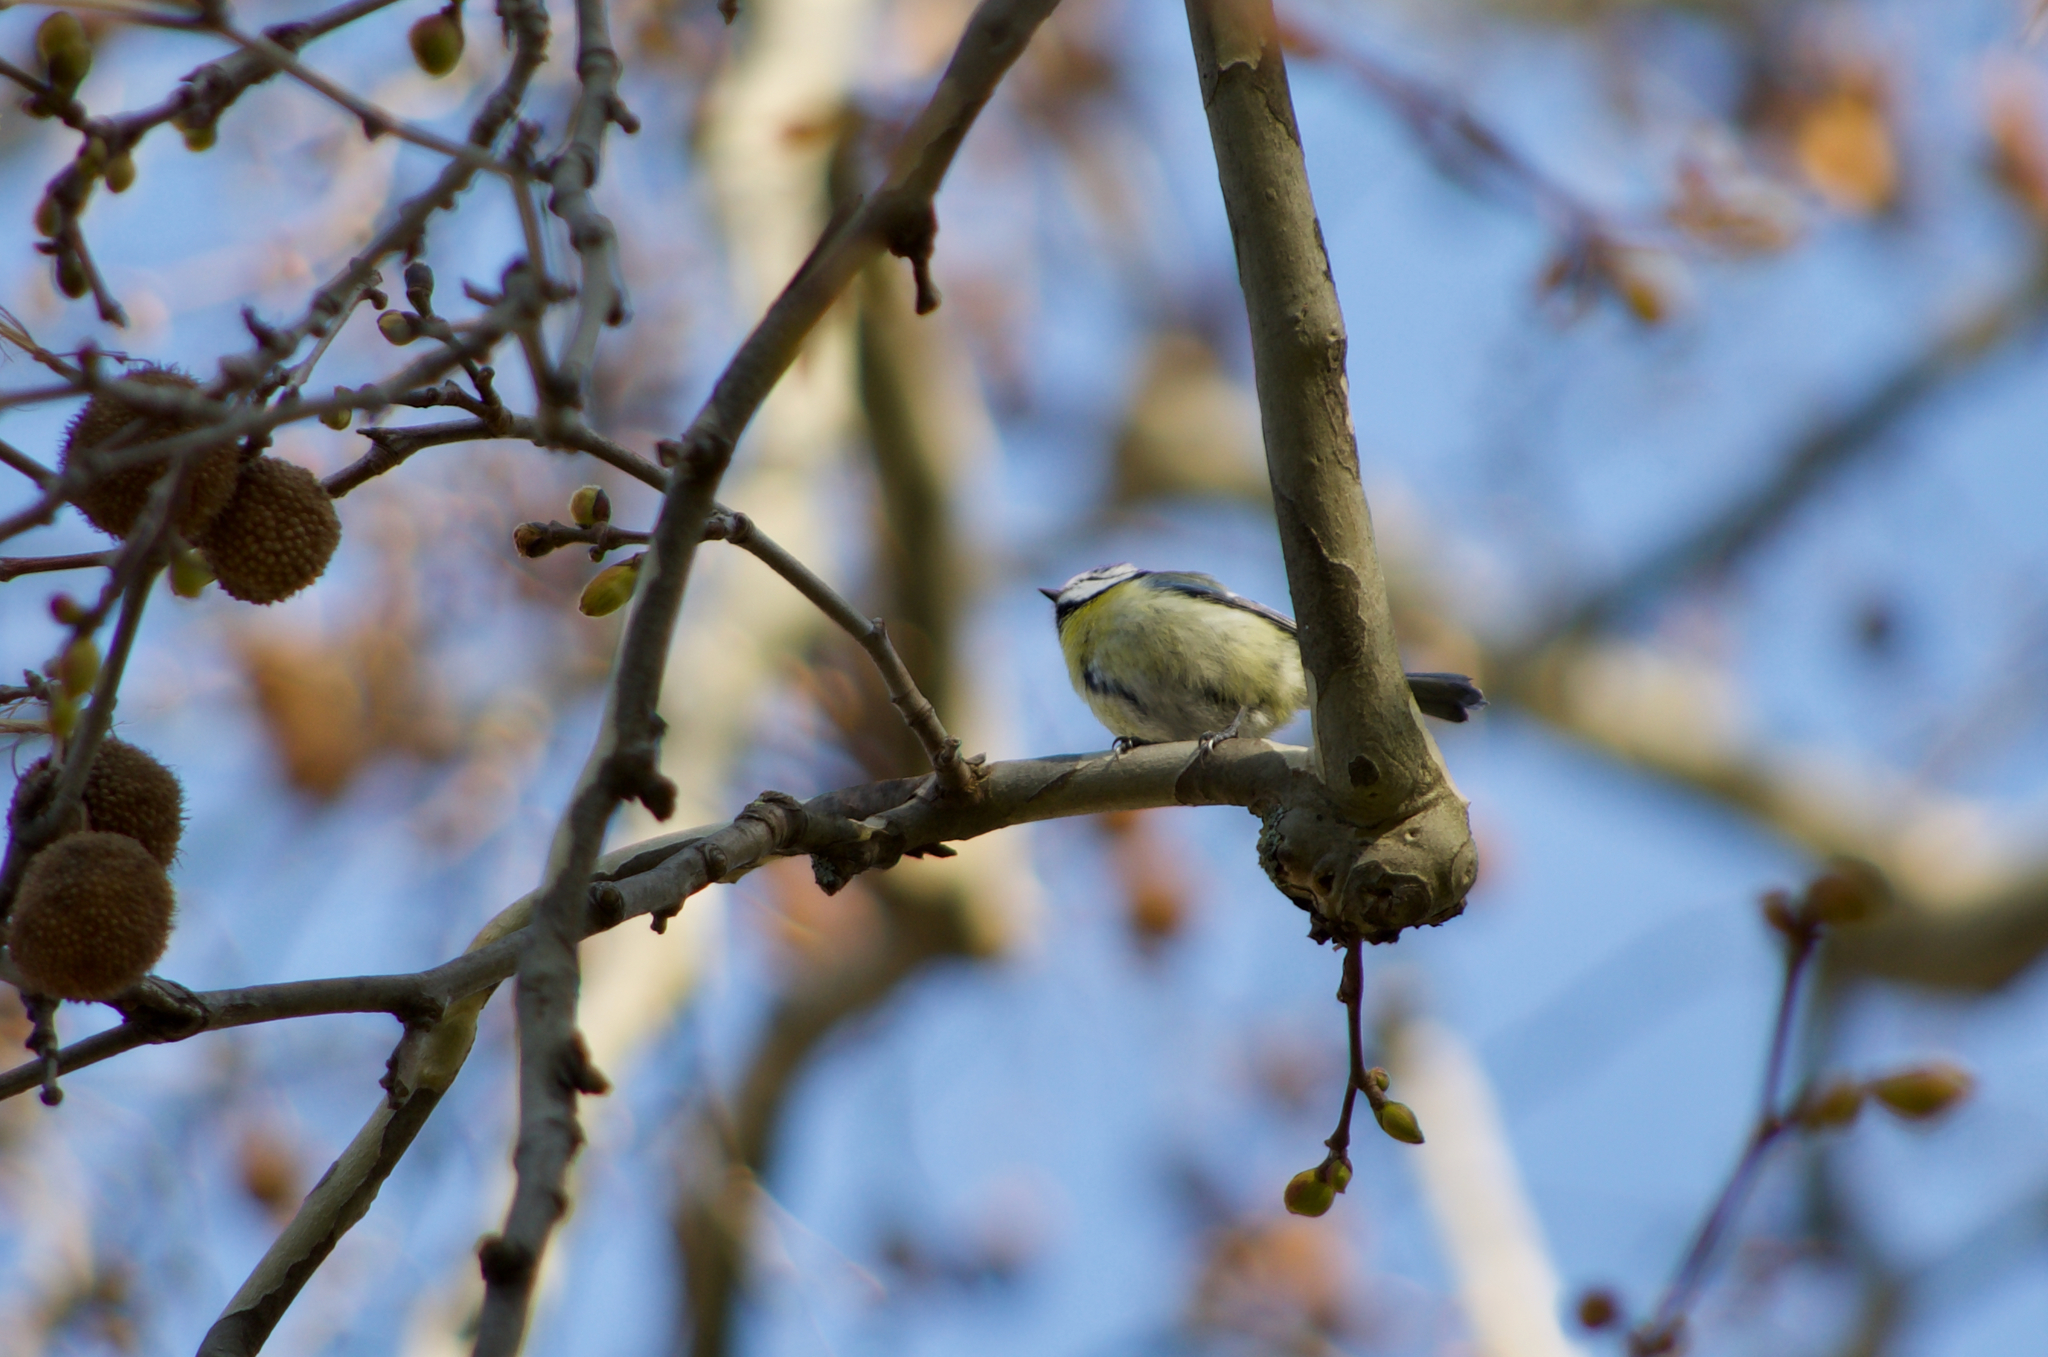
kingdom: Animalia
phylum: Chordata
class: Aves
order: Passeriformes
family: Paridae
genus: Cyanistes
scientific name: Cyanistes caeruleus
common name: Eurasian blue tit
